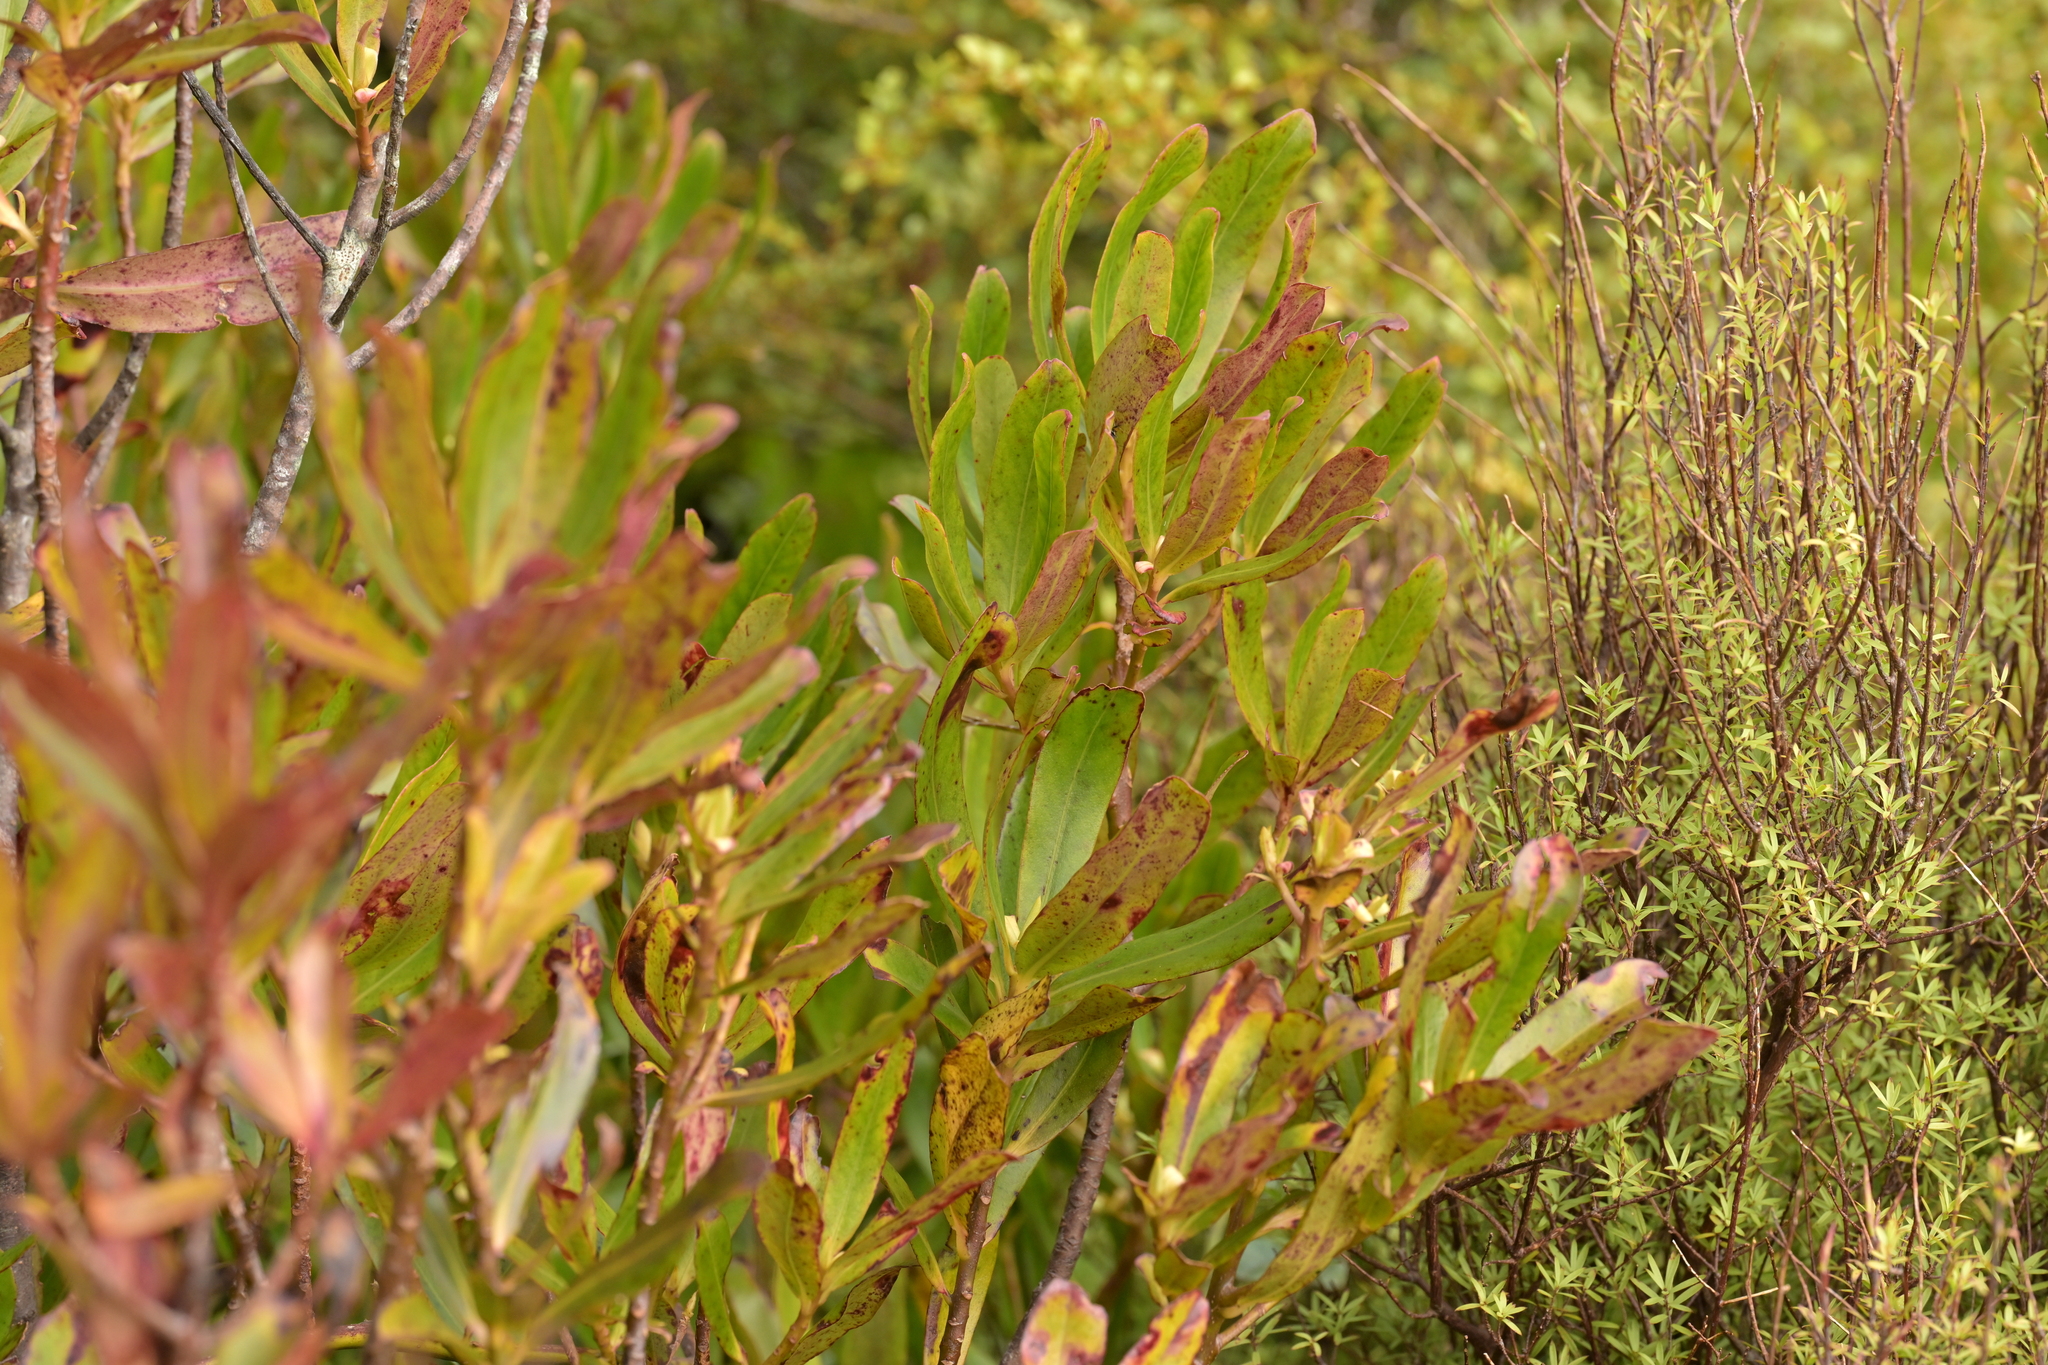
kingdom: Plantae
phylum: Tracheophyta
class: Magnoliopsida
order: Ericales
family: Primulaceae
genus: Myrsine
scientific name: Myrsine salicina
